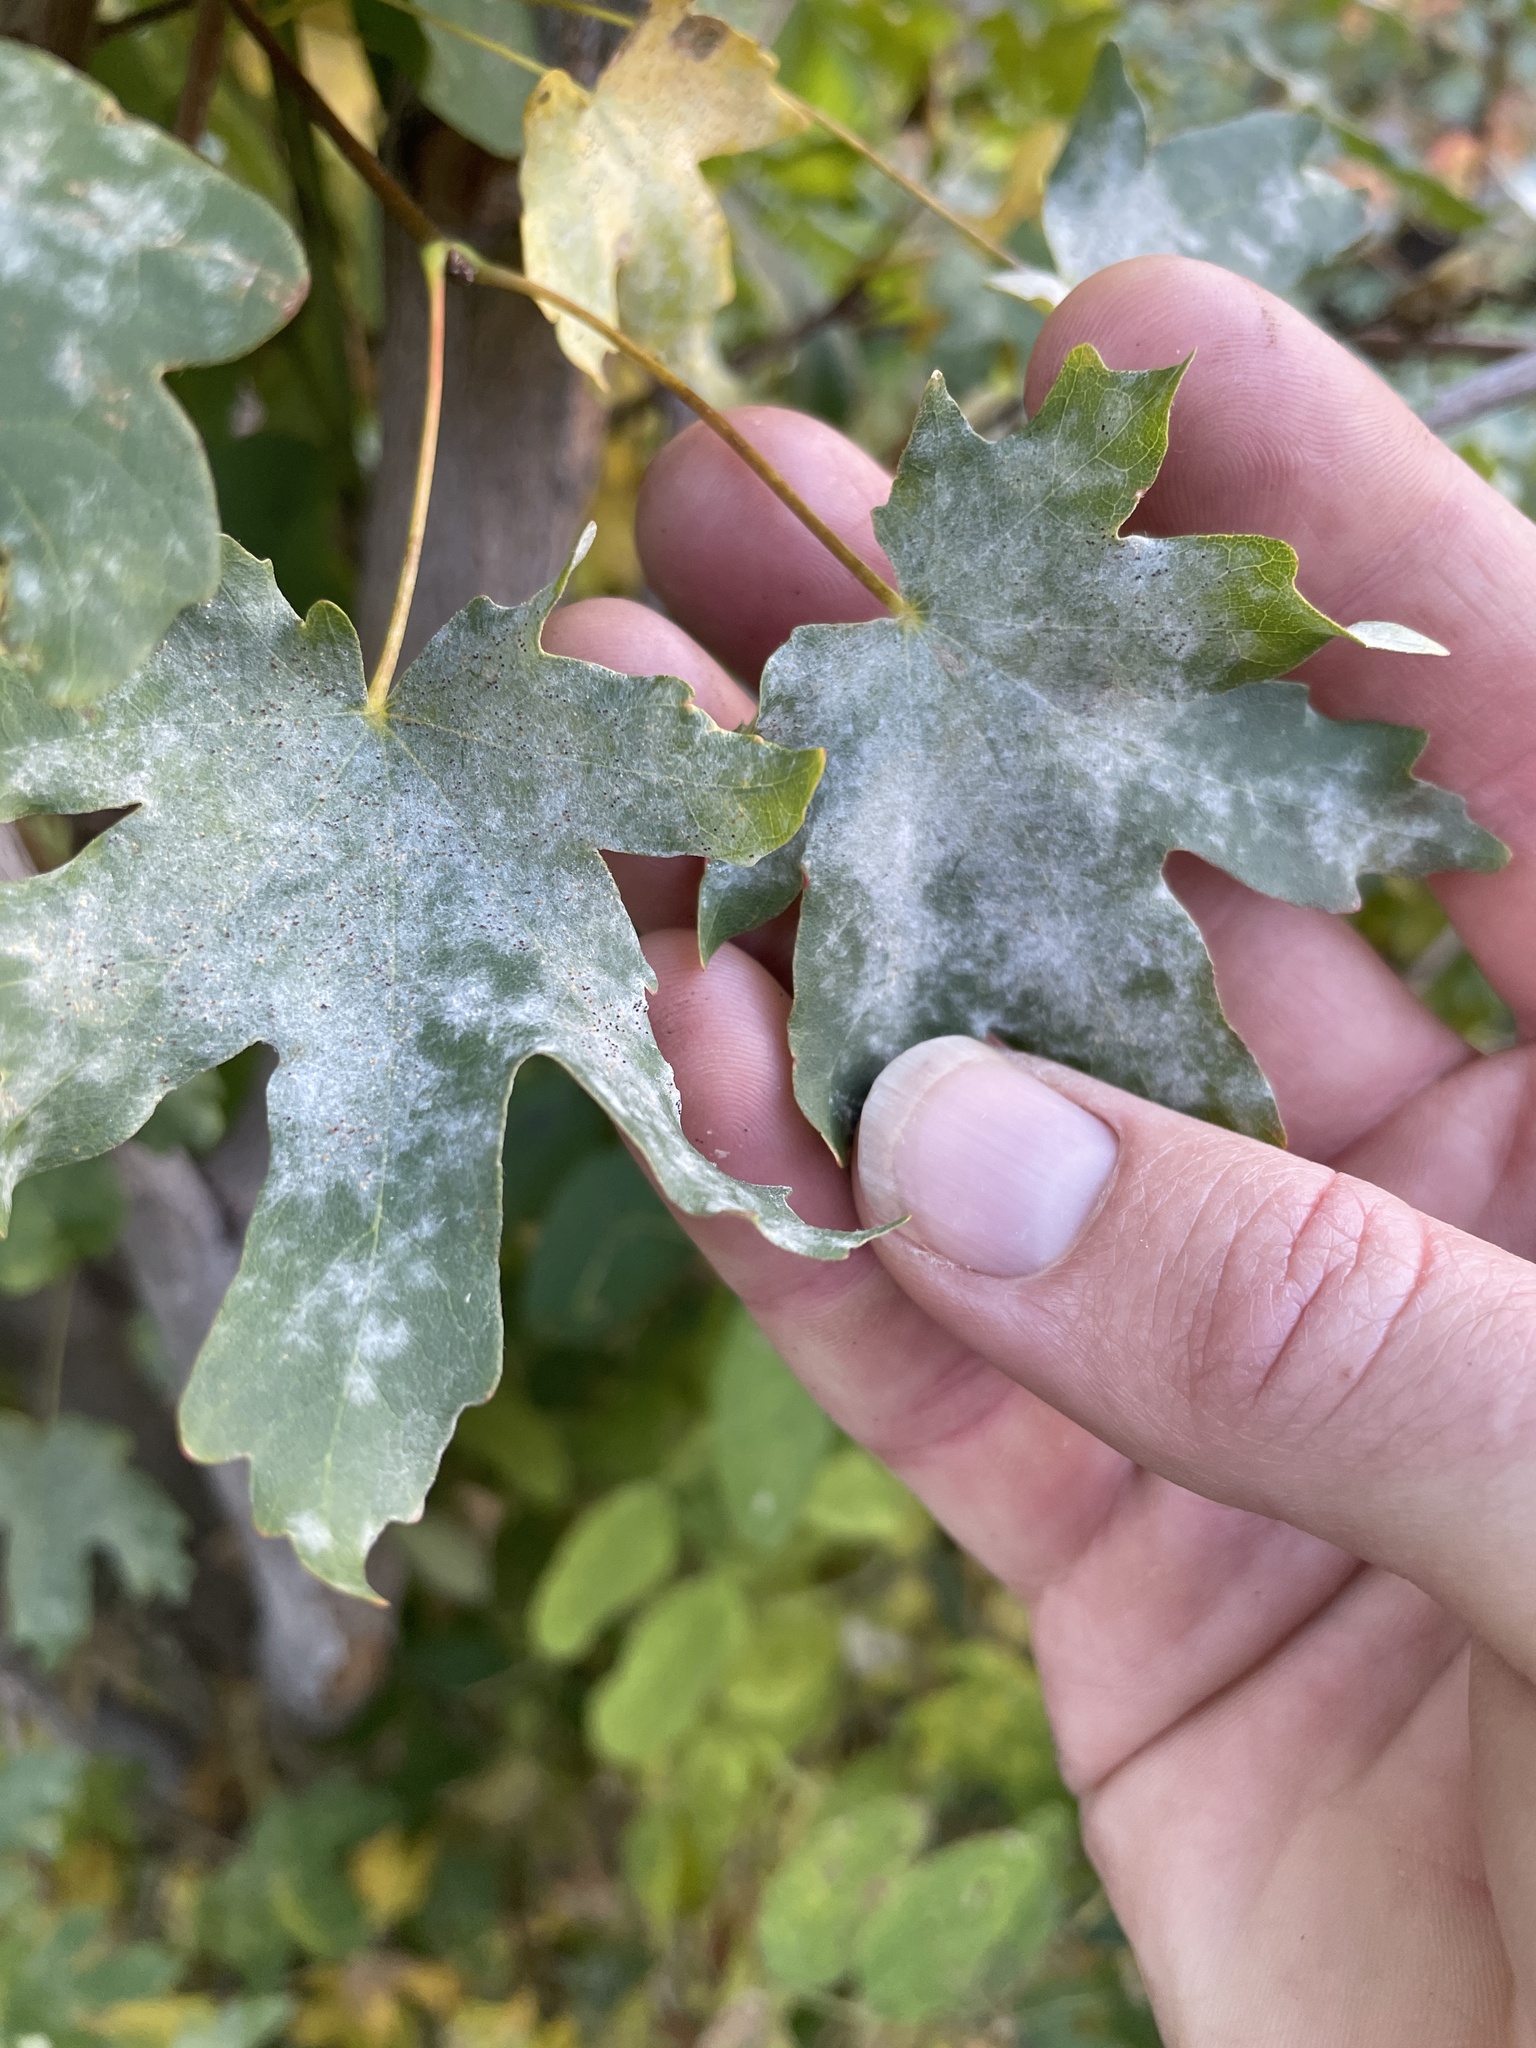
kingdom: Fungi
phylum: Ascomycota
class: Leotiomycetes
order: Helotiales
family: Erysiphaceae
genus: Sawadaea
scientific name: Sawadaea bicornis
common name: Maple mildew
